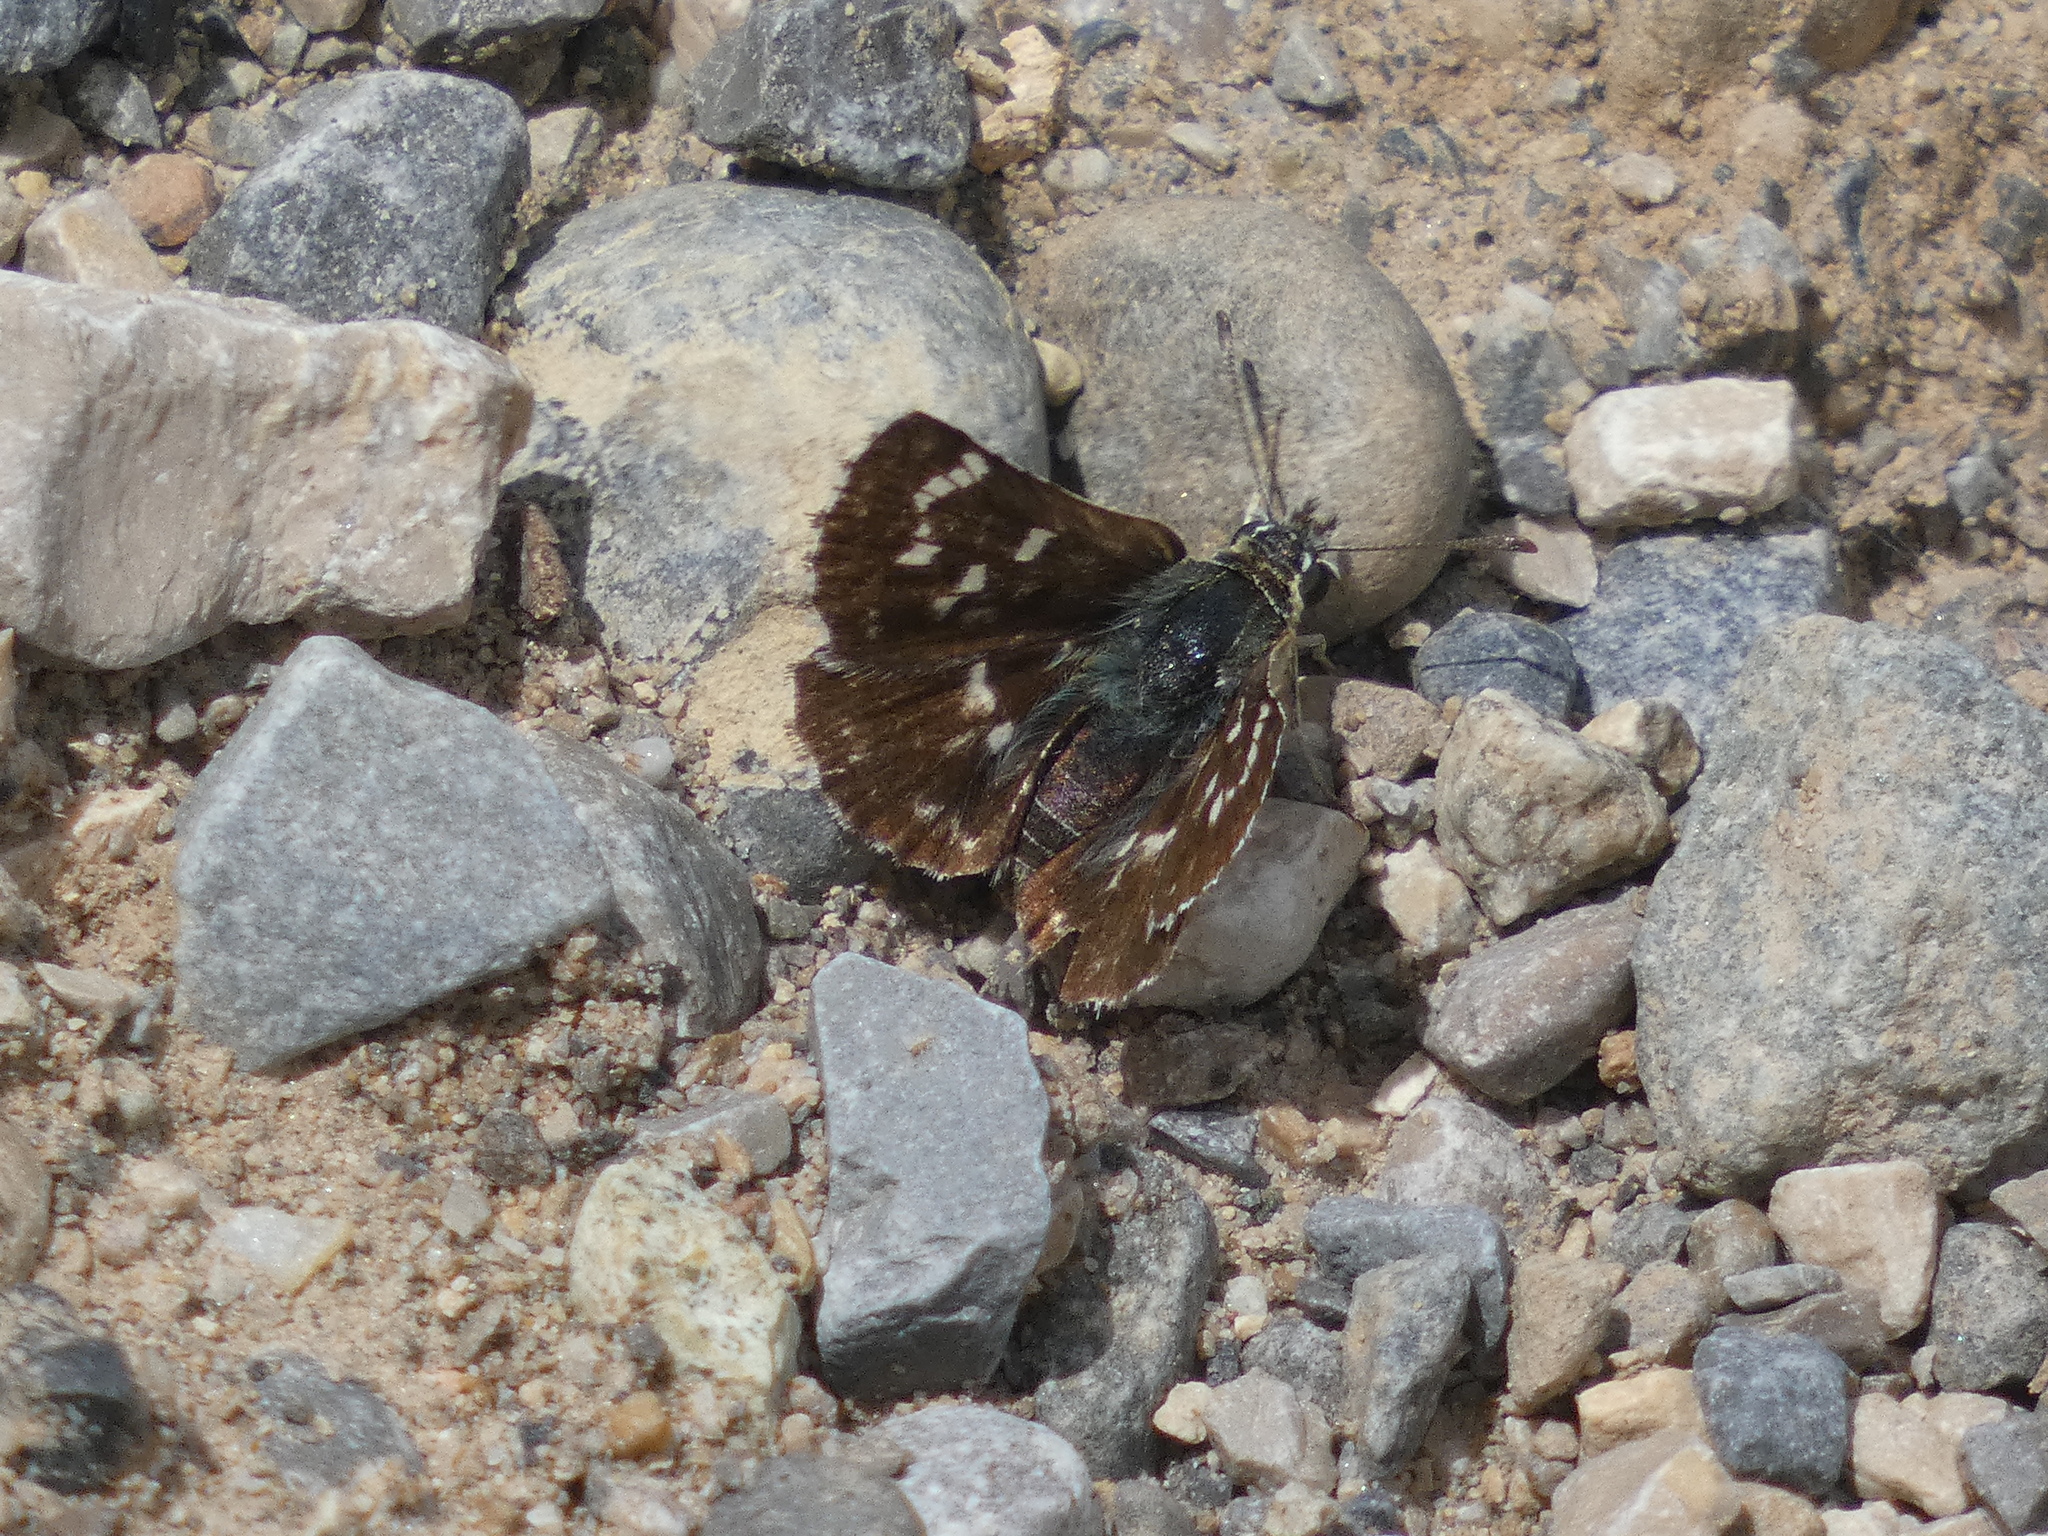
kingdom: Animalia
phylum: Arthropoda
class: Insecta
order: Lepidoptera
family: Hesperiidae
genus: Spialia
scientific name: Spialia sertorius
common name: Red underwing skipper
